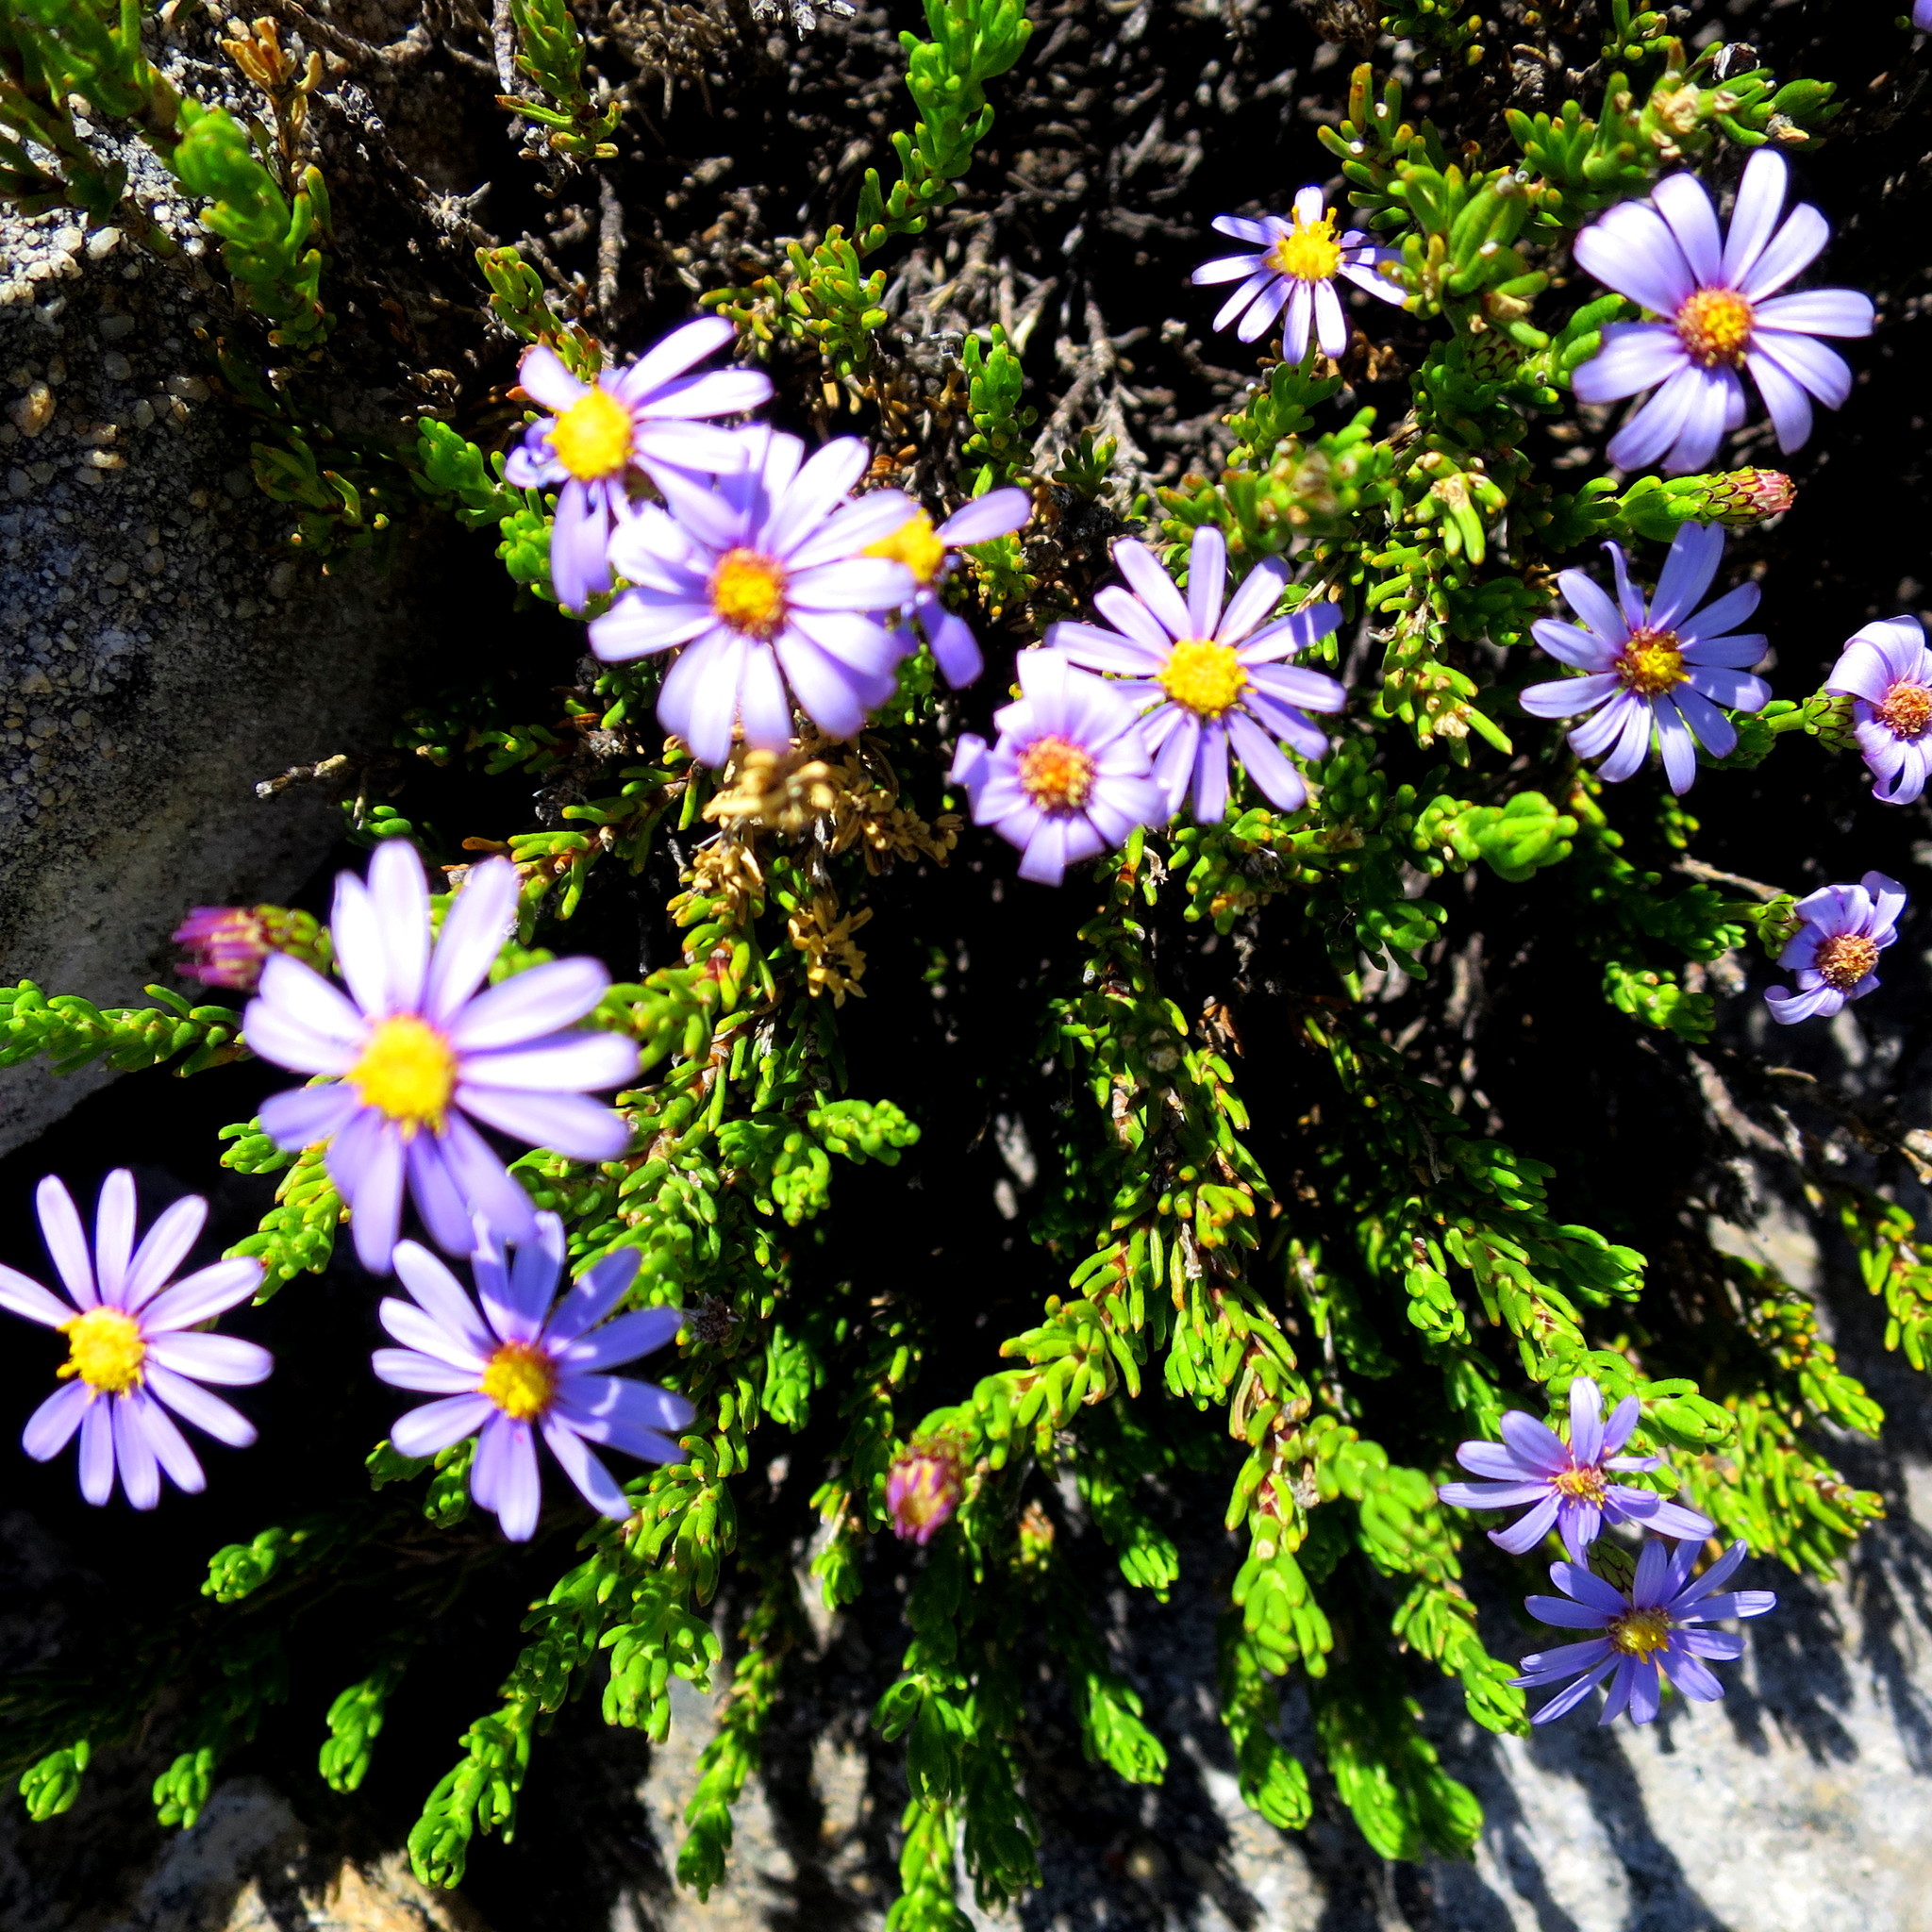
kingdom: Plantae
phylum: Tracheophyta
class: Magnoliopsida
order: Asterales
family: Asteraceae
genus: Felicia
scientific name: Felicia oleosa
